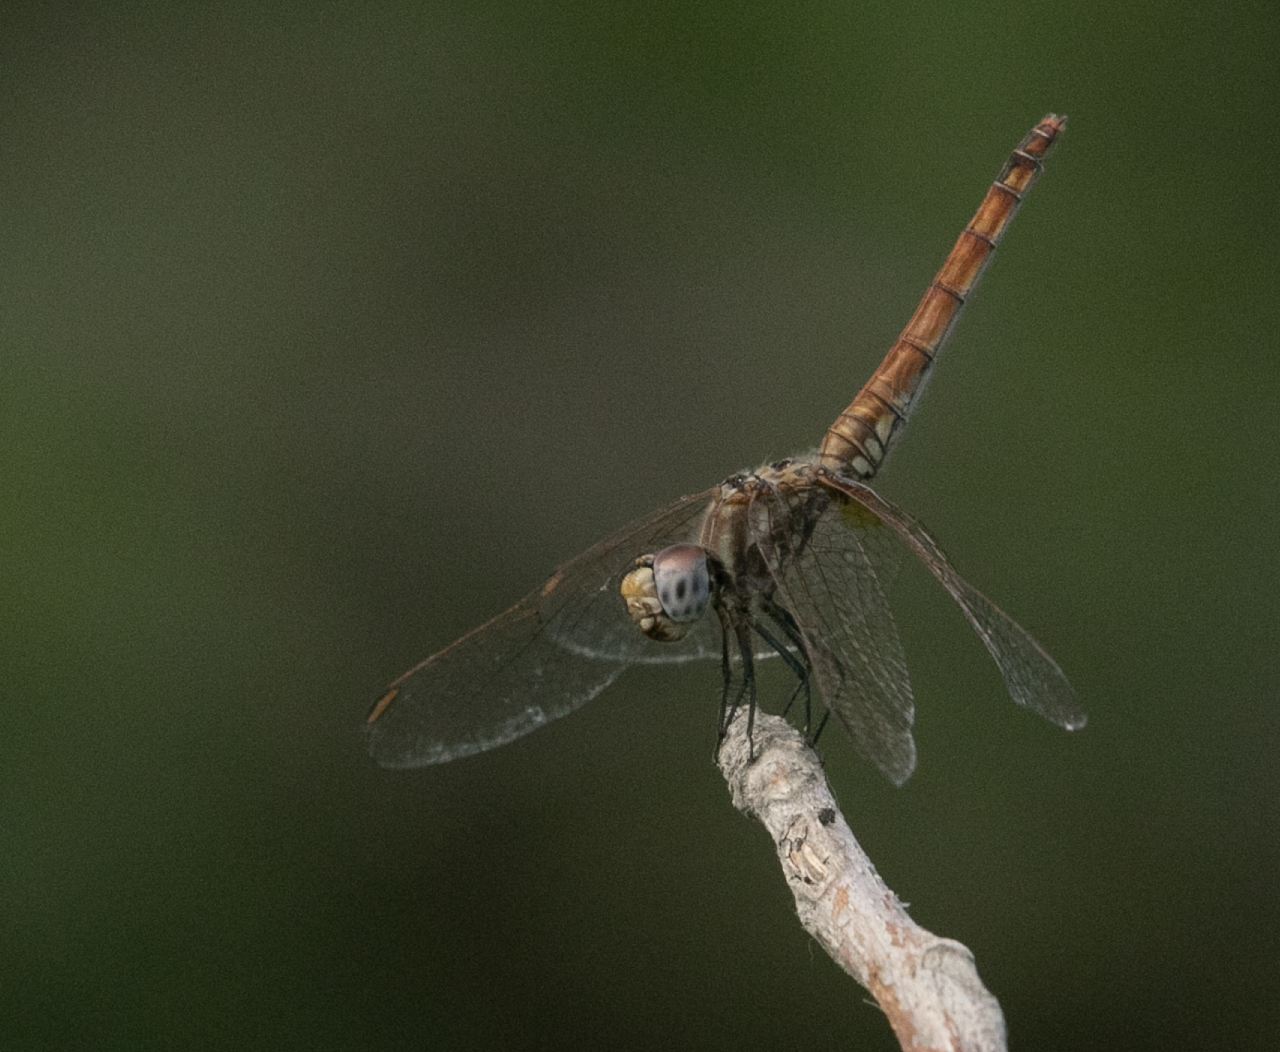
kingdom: Animalia
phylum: Arthropoda
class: Insecta
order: Odonata
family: Libellulidae
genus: Trithemis
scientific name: Trithemis annulata
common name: Violet dropwing
